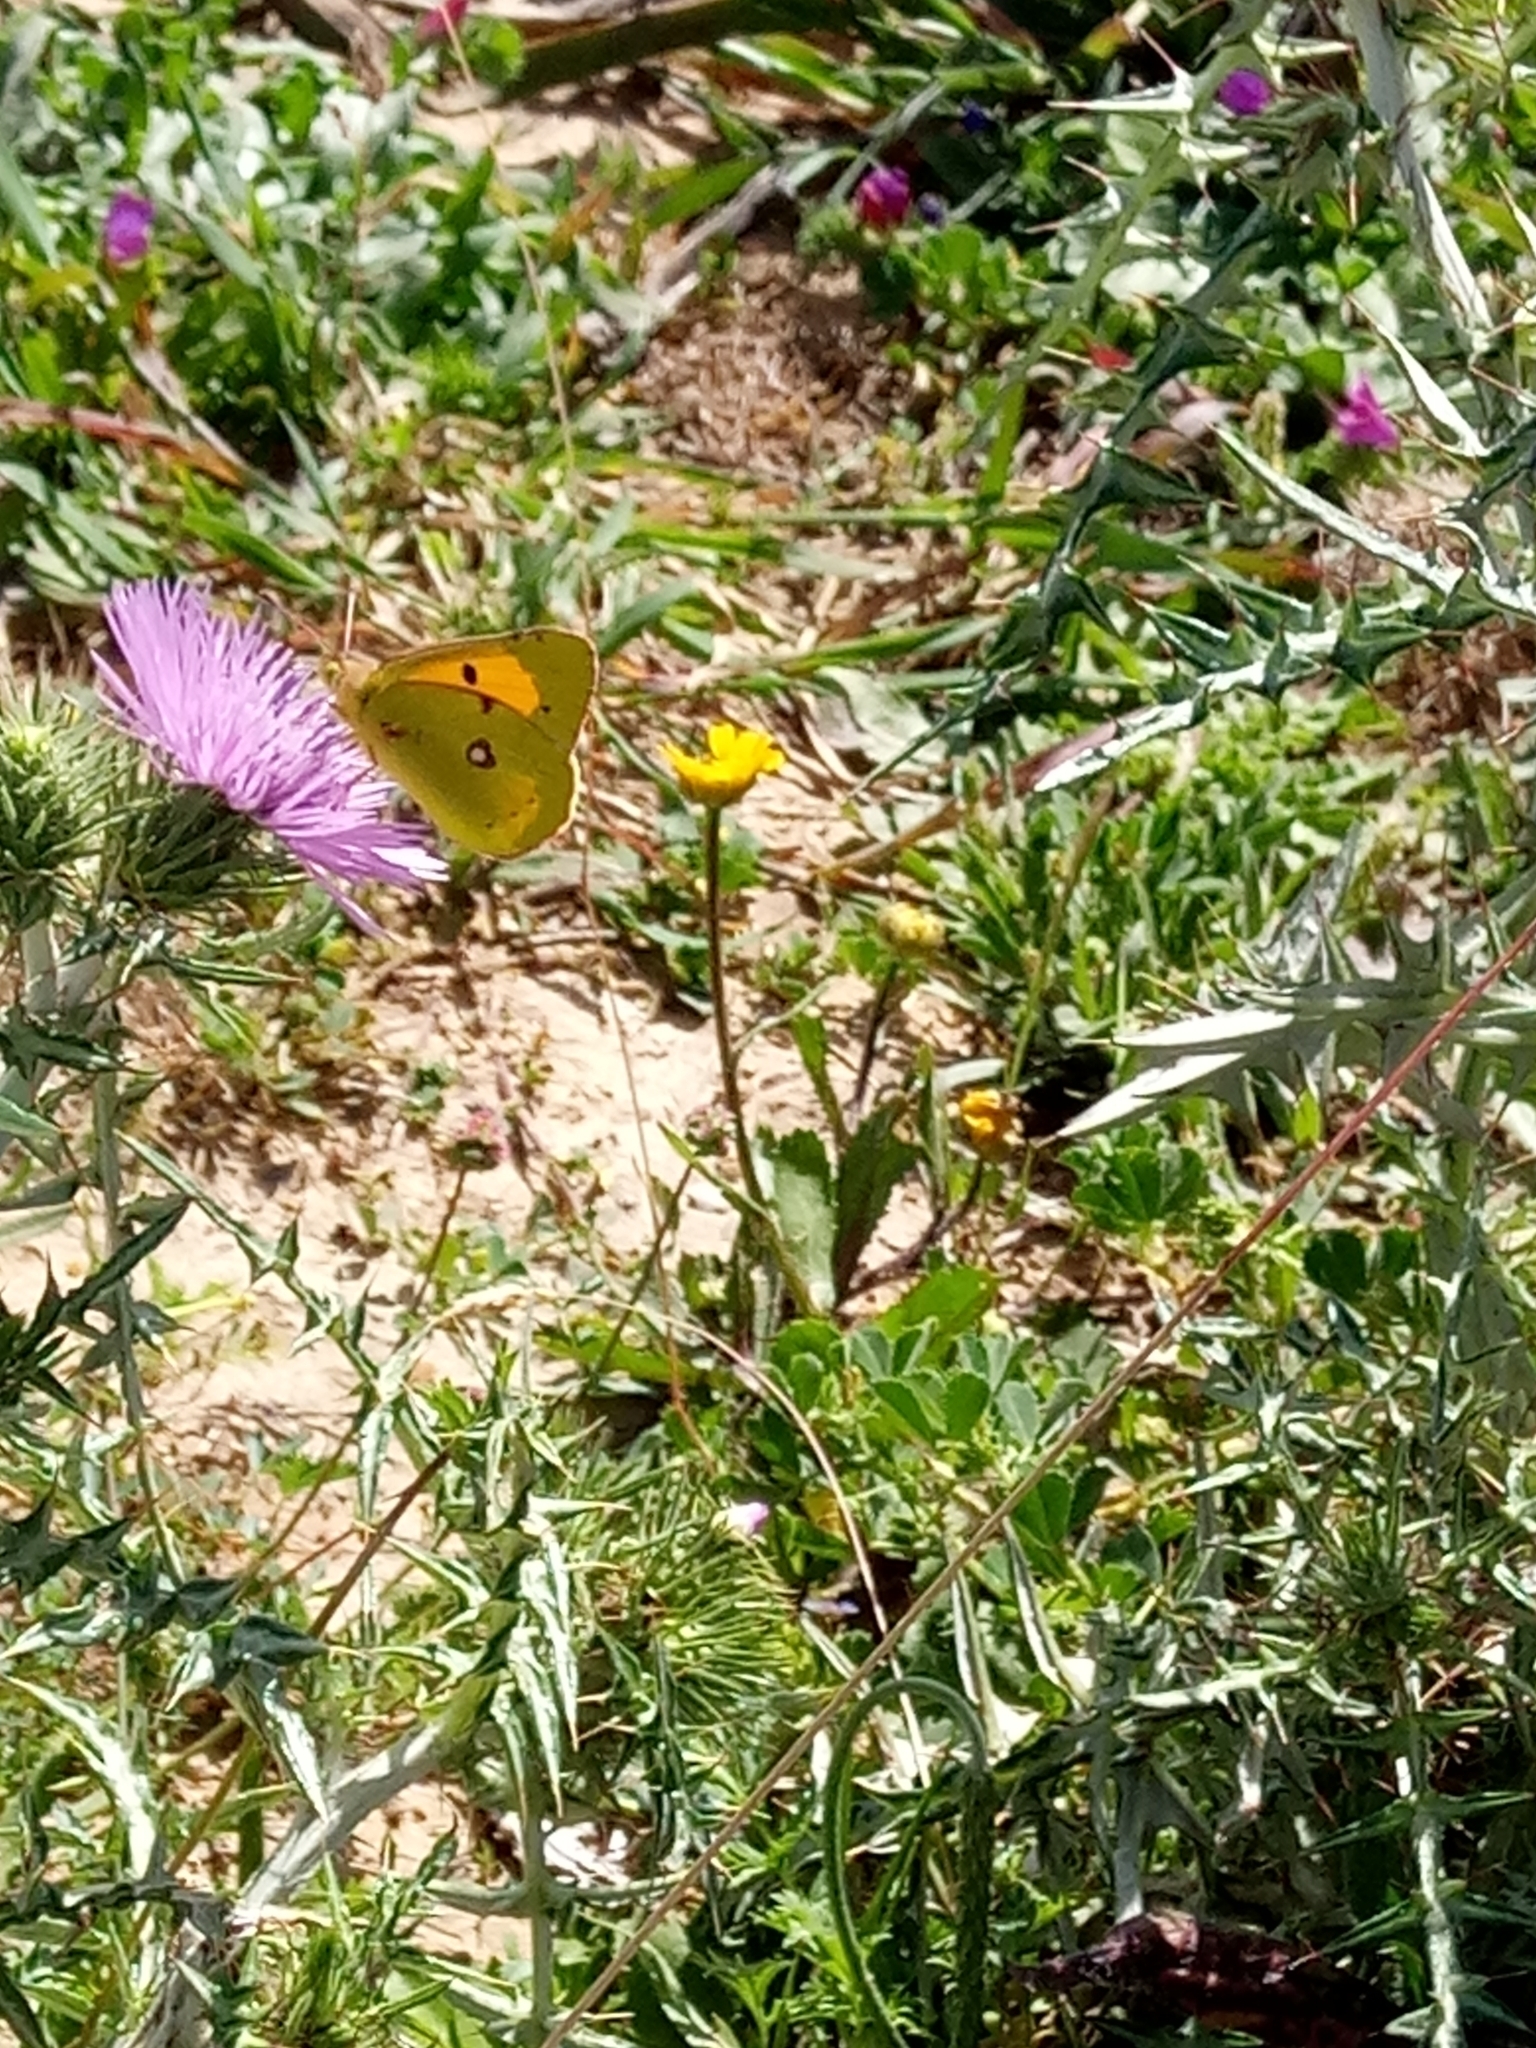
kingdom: Animalia
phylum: Arthropoda
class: Insecta
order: Lepidoptera
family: Pieridae
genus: Colias
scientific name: Colias croceus
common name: Clouded yellow
